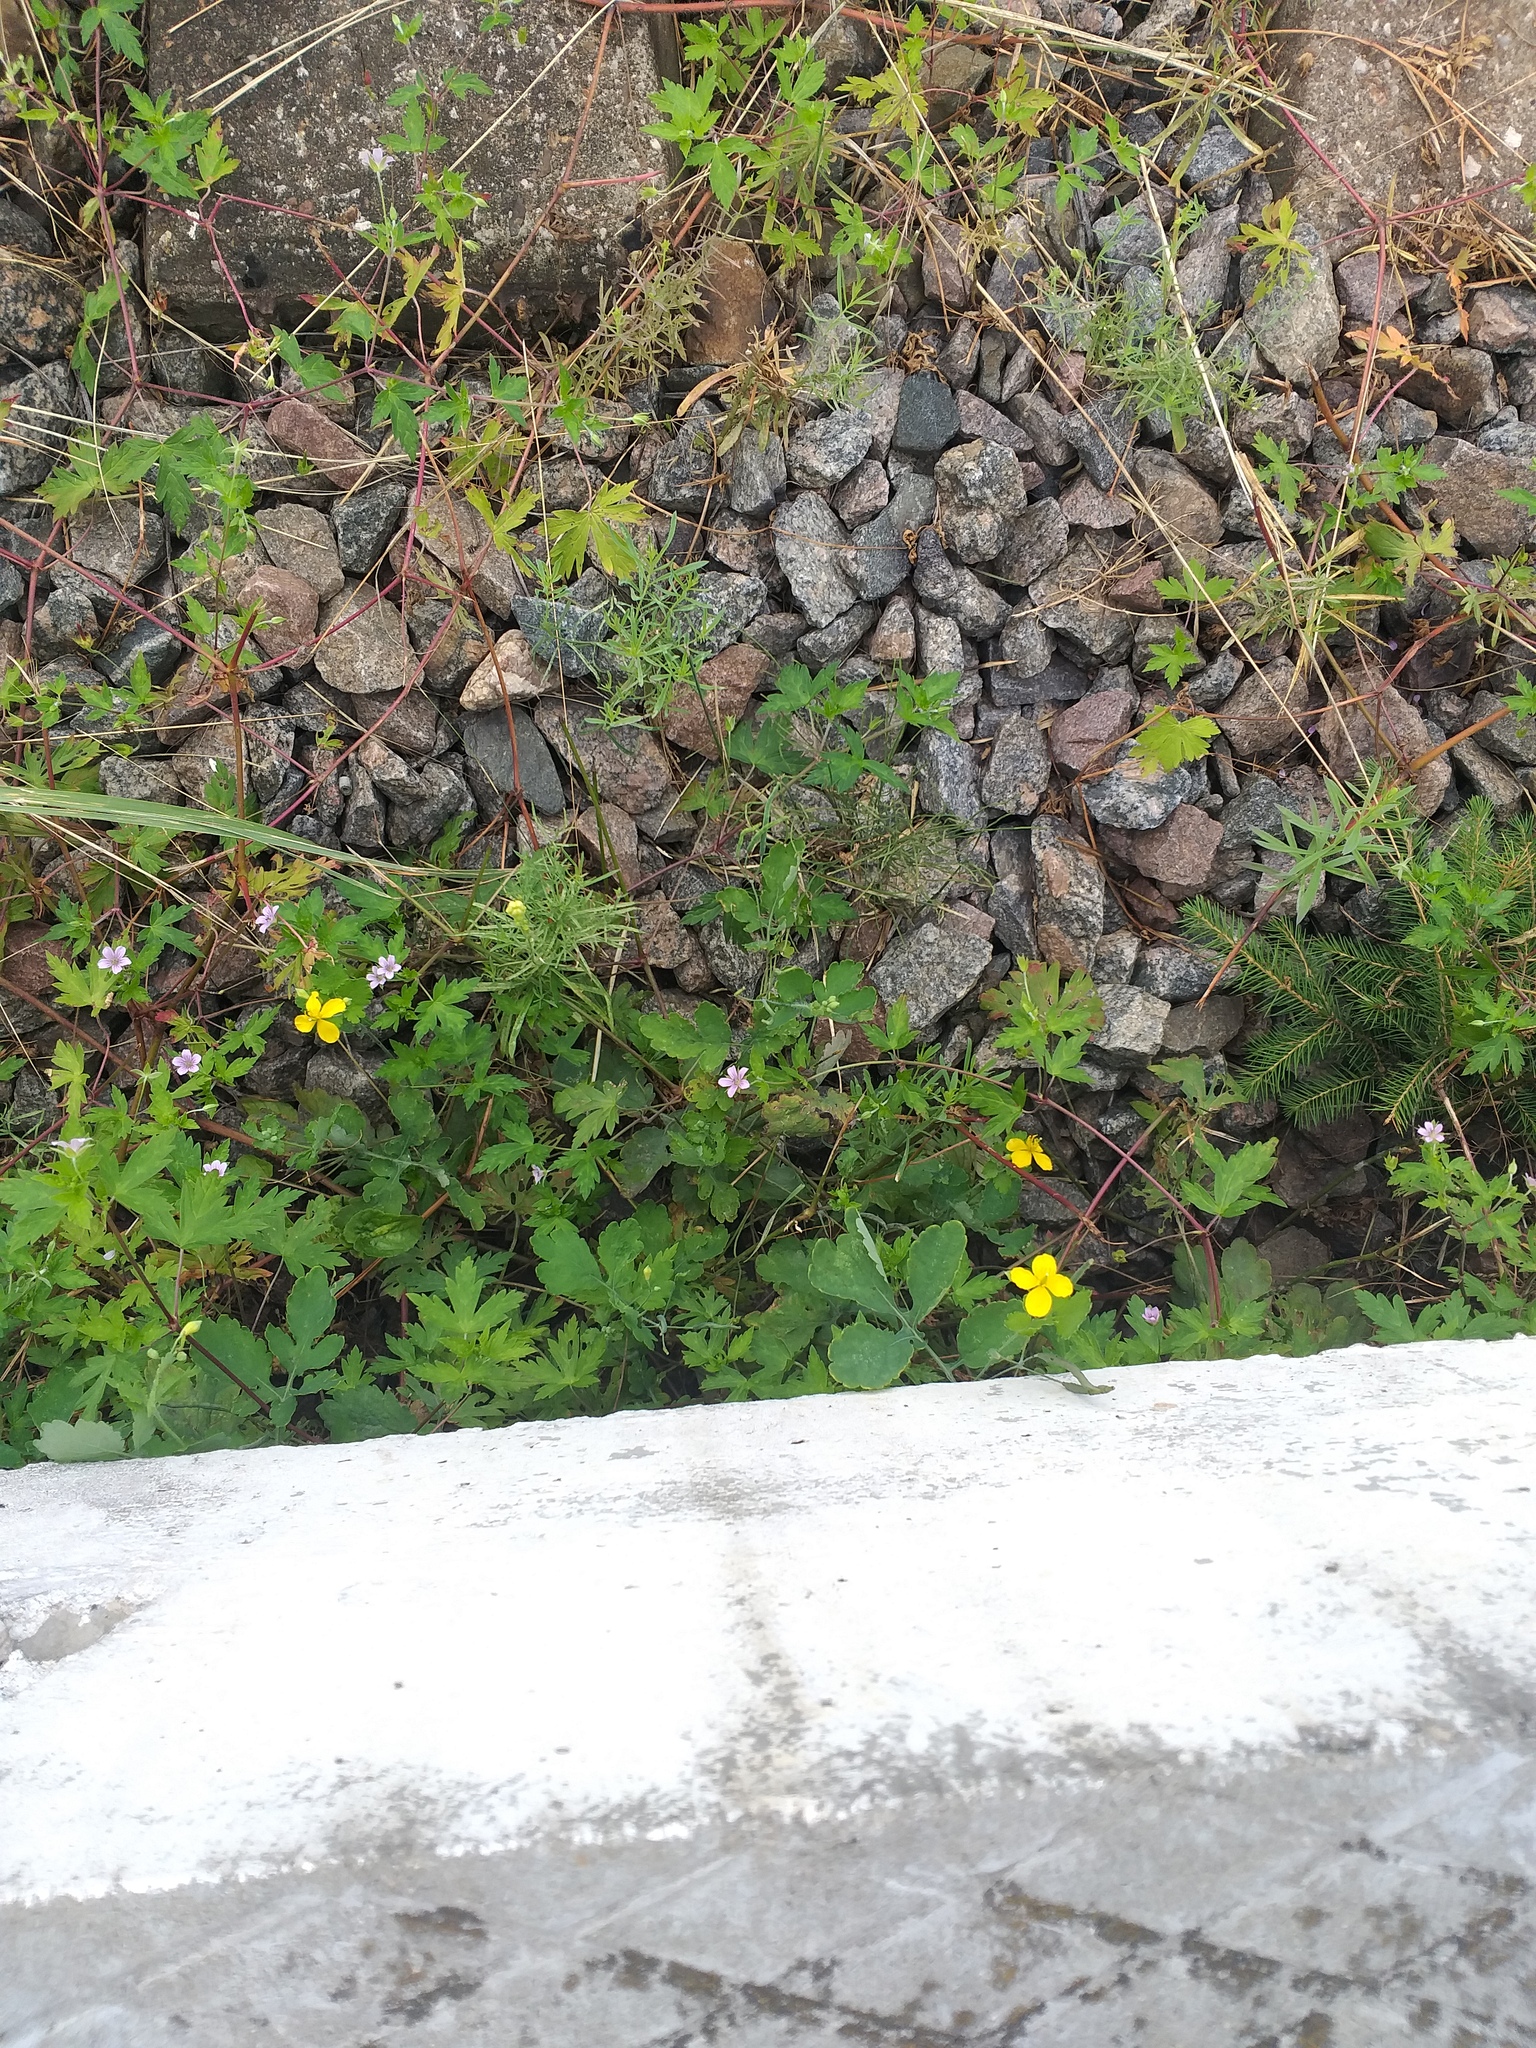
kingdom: Plantae
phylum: Tracheophyta
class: Magnoliopsida
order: Geraniales
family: Geraniaceae
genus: Geranium
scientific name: Geranium sibiricum
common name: Siberian crane's-bill
